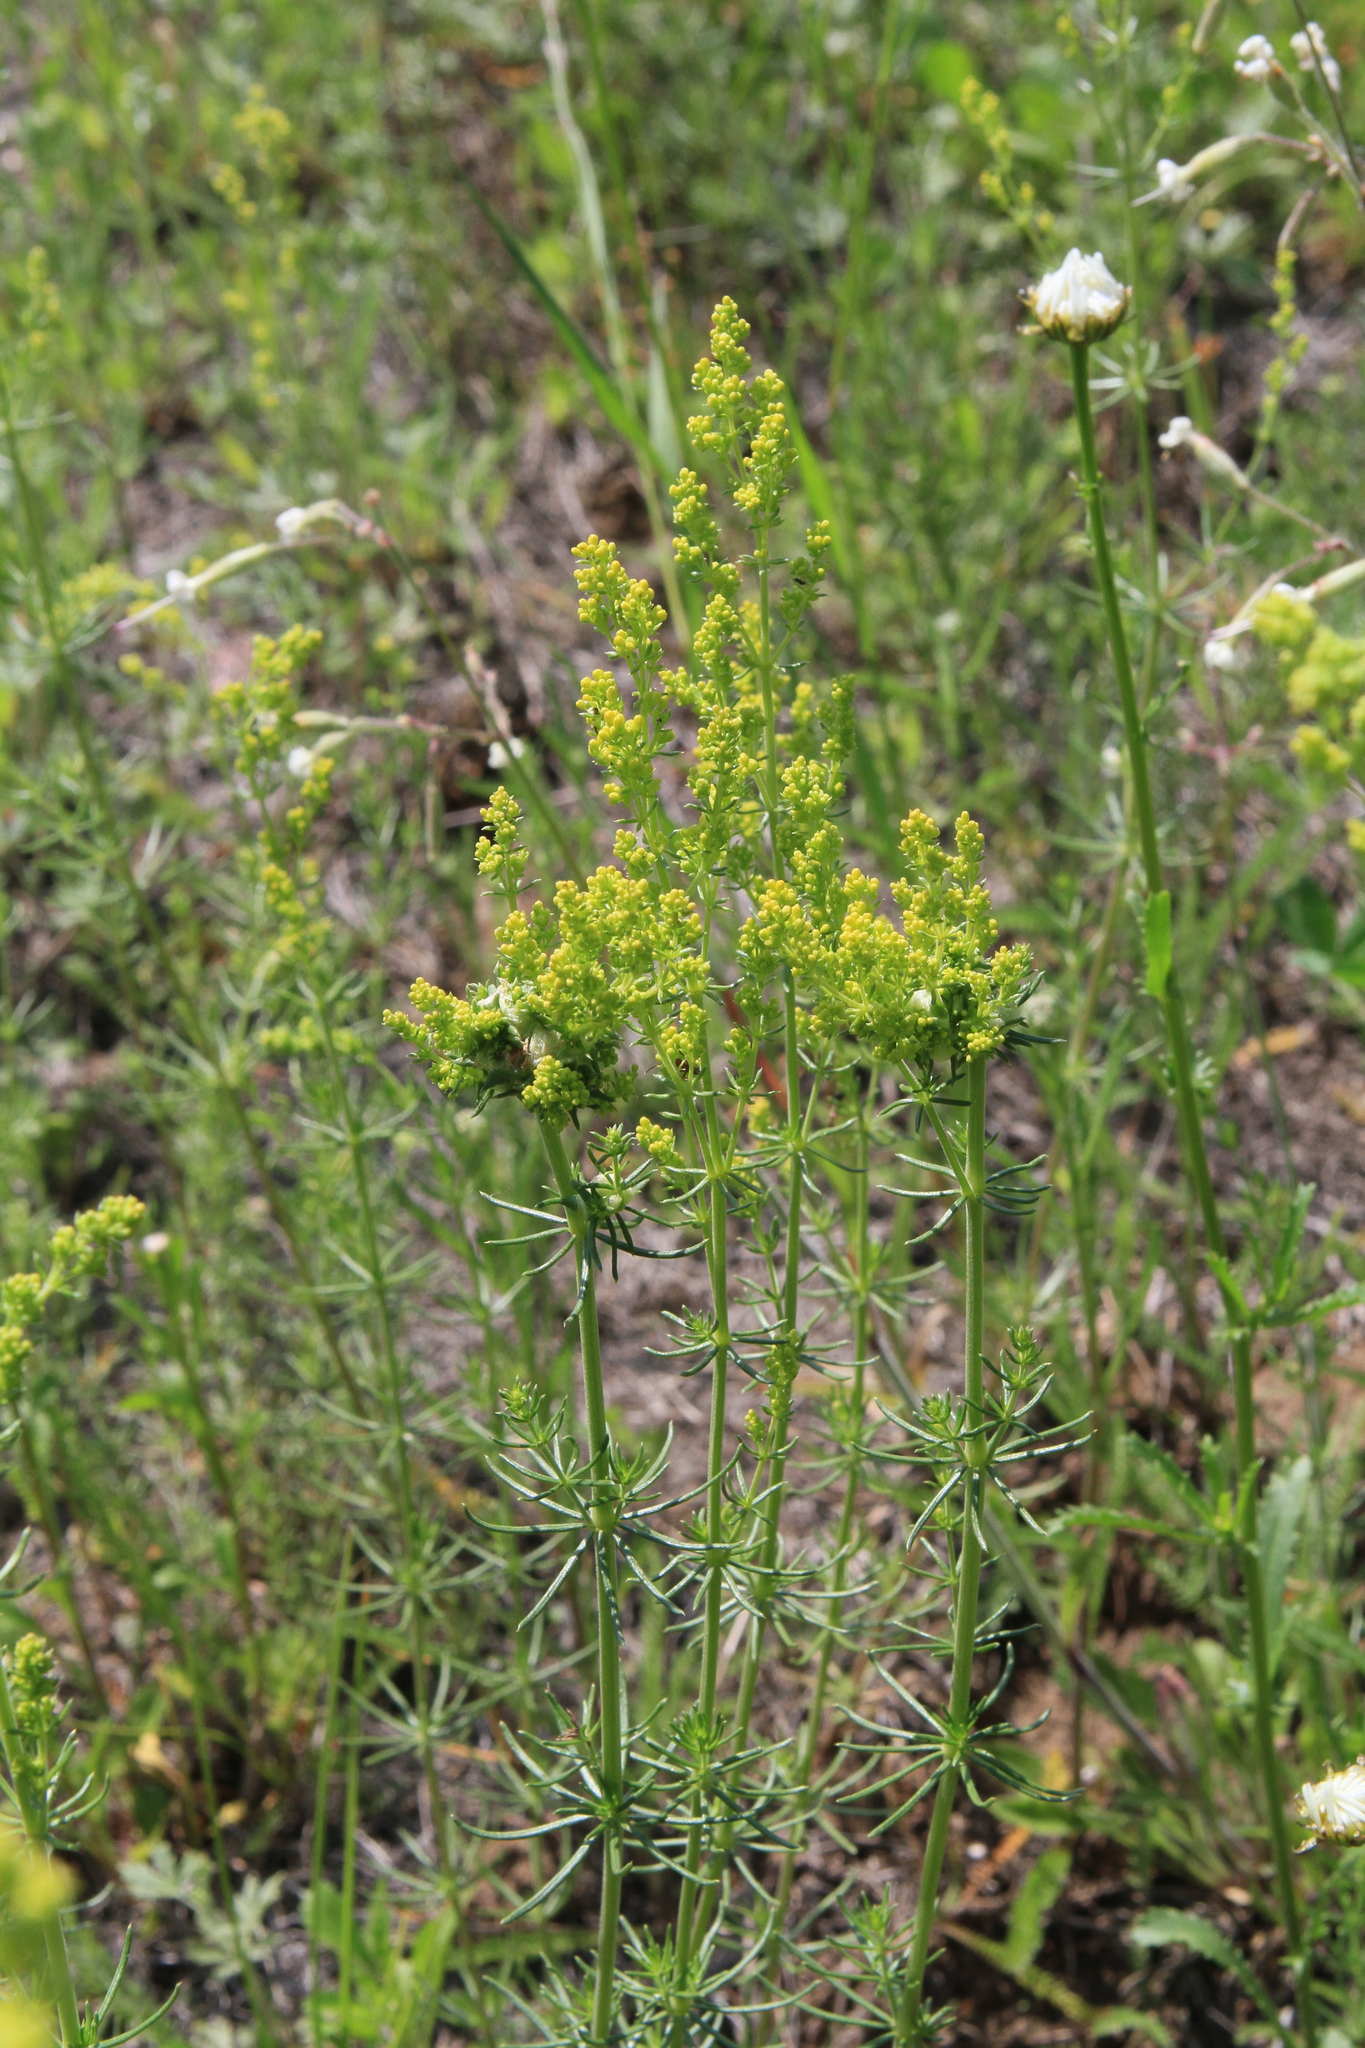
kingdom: Plantae
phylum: Tracheophyta
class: Magnoliopsida
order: Gentianales
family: Rubiaceae
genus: Galium
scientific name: Galium verum
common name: Lady's bedstraw
